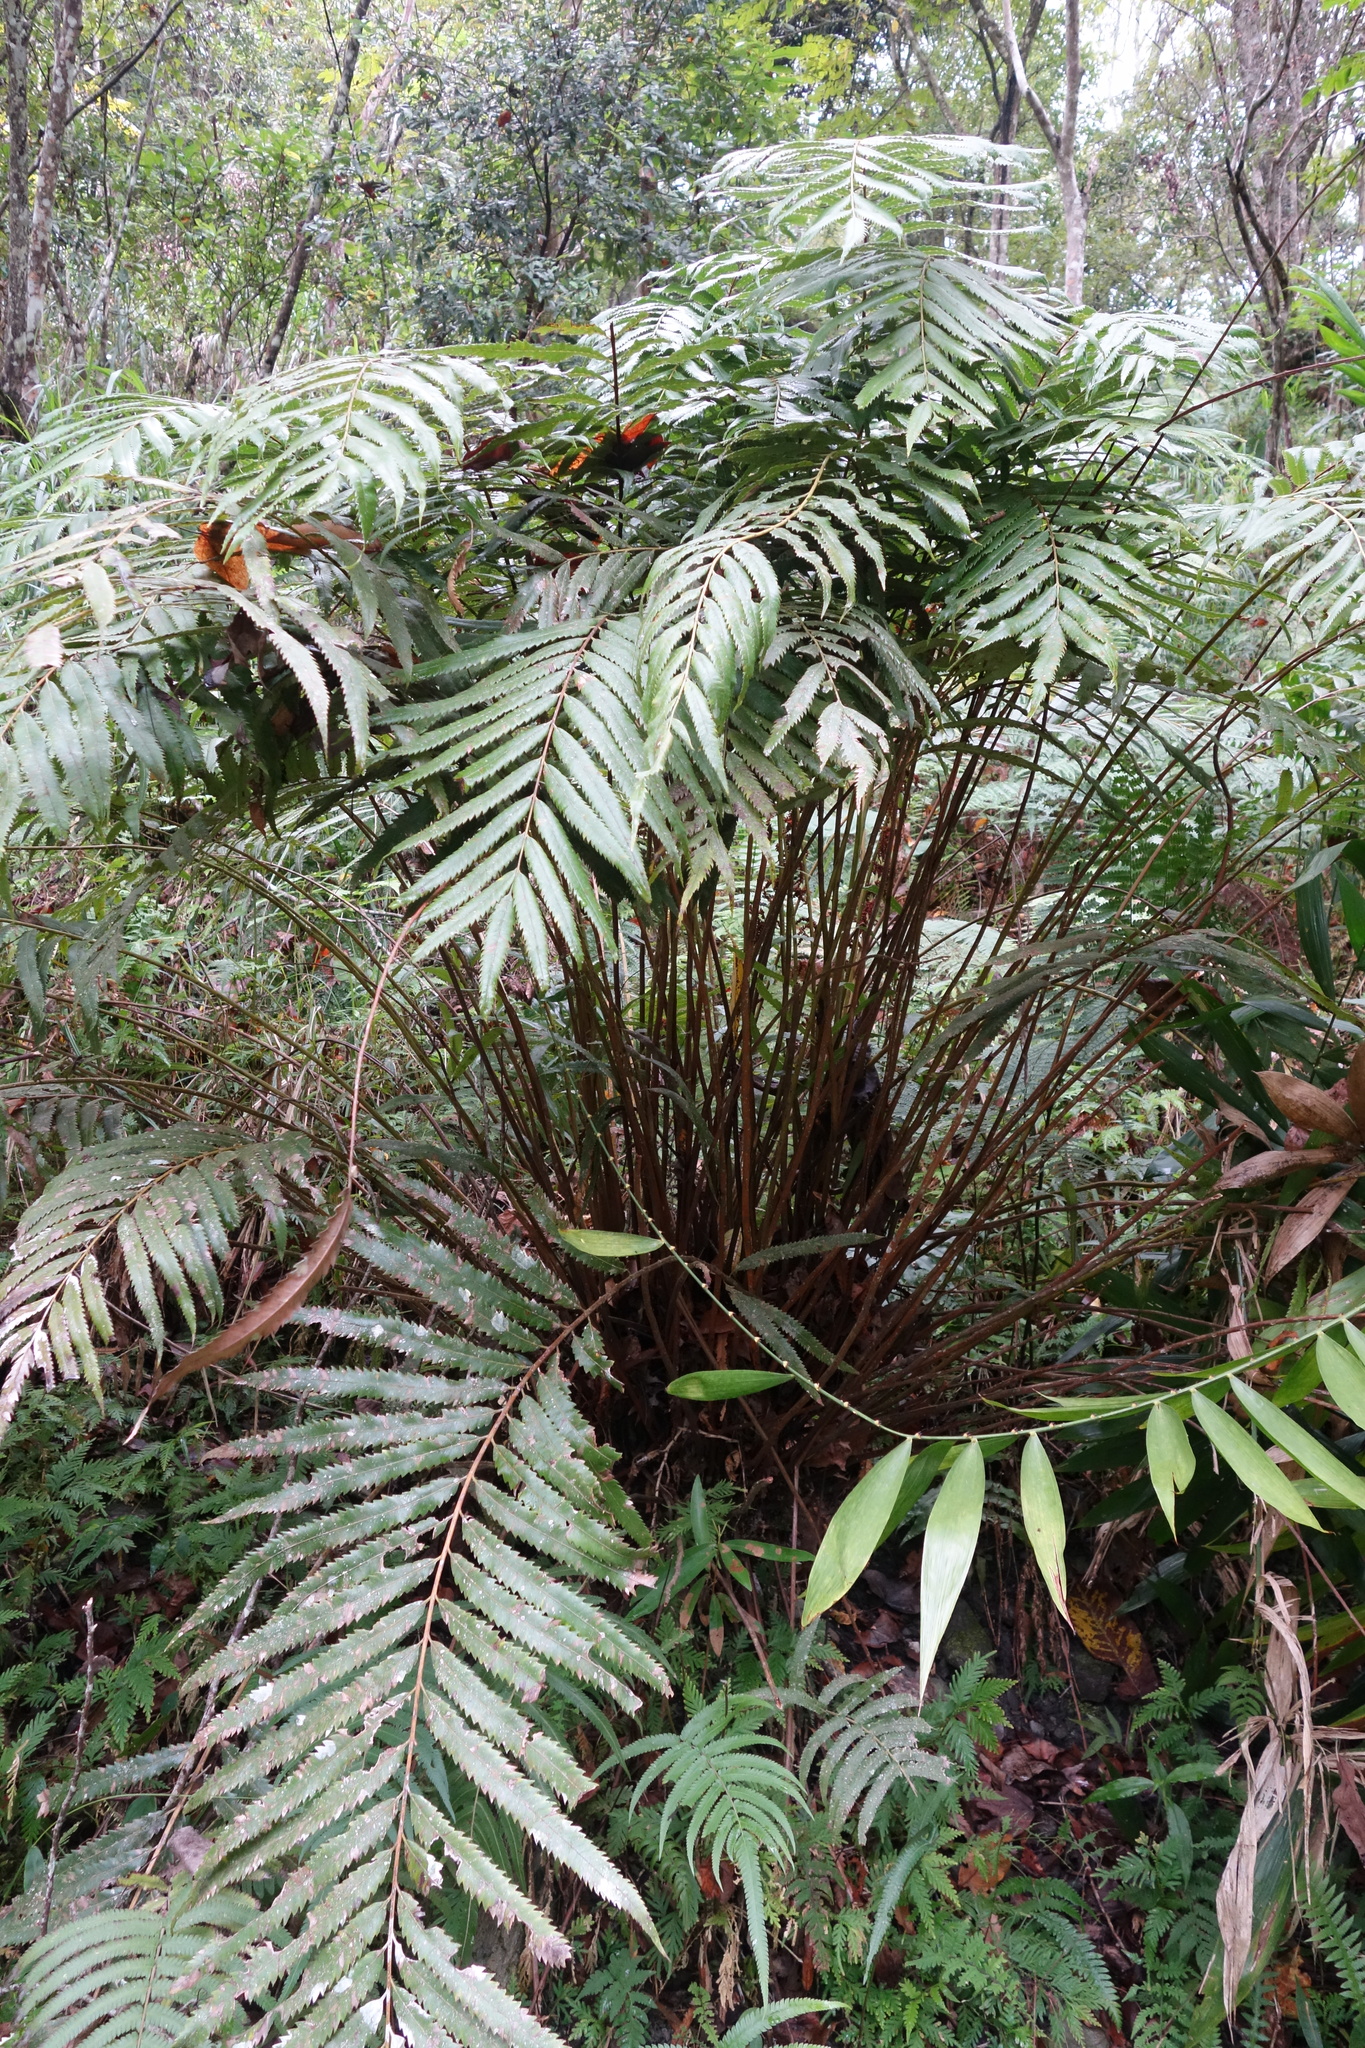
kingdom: Plantae
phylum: Tracheophyta
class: Polypodiopsida
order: Osmundales
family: Osmundaceae
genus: Plenasium
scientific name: Plenasium banksiifolium
